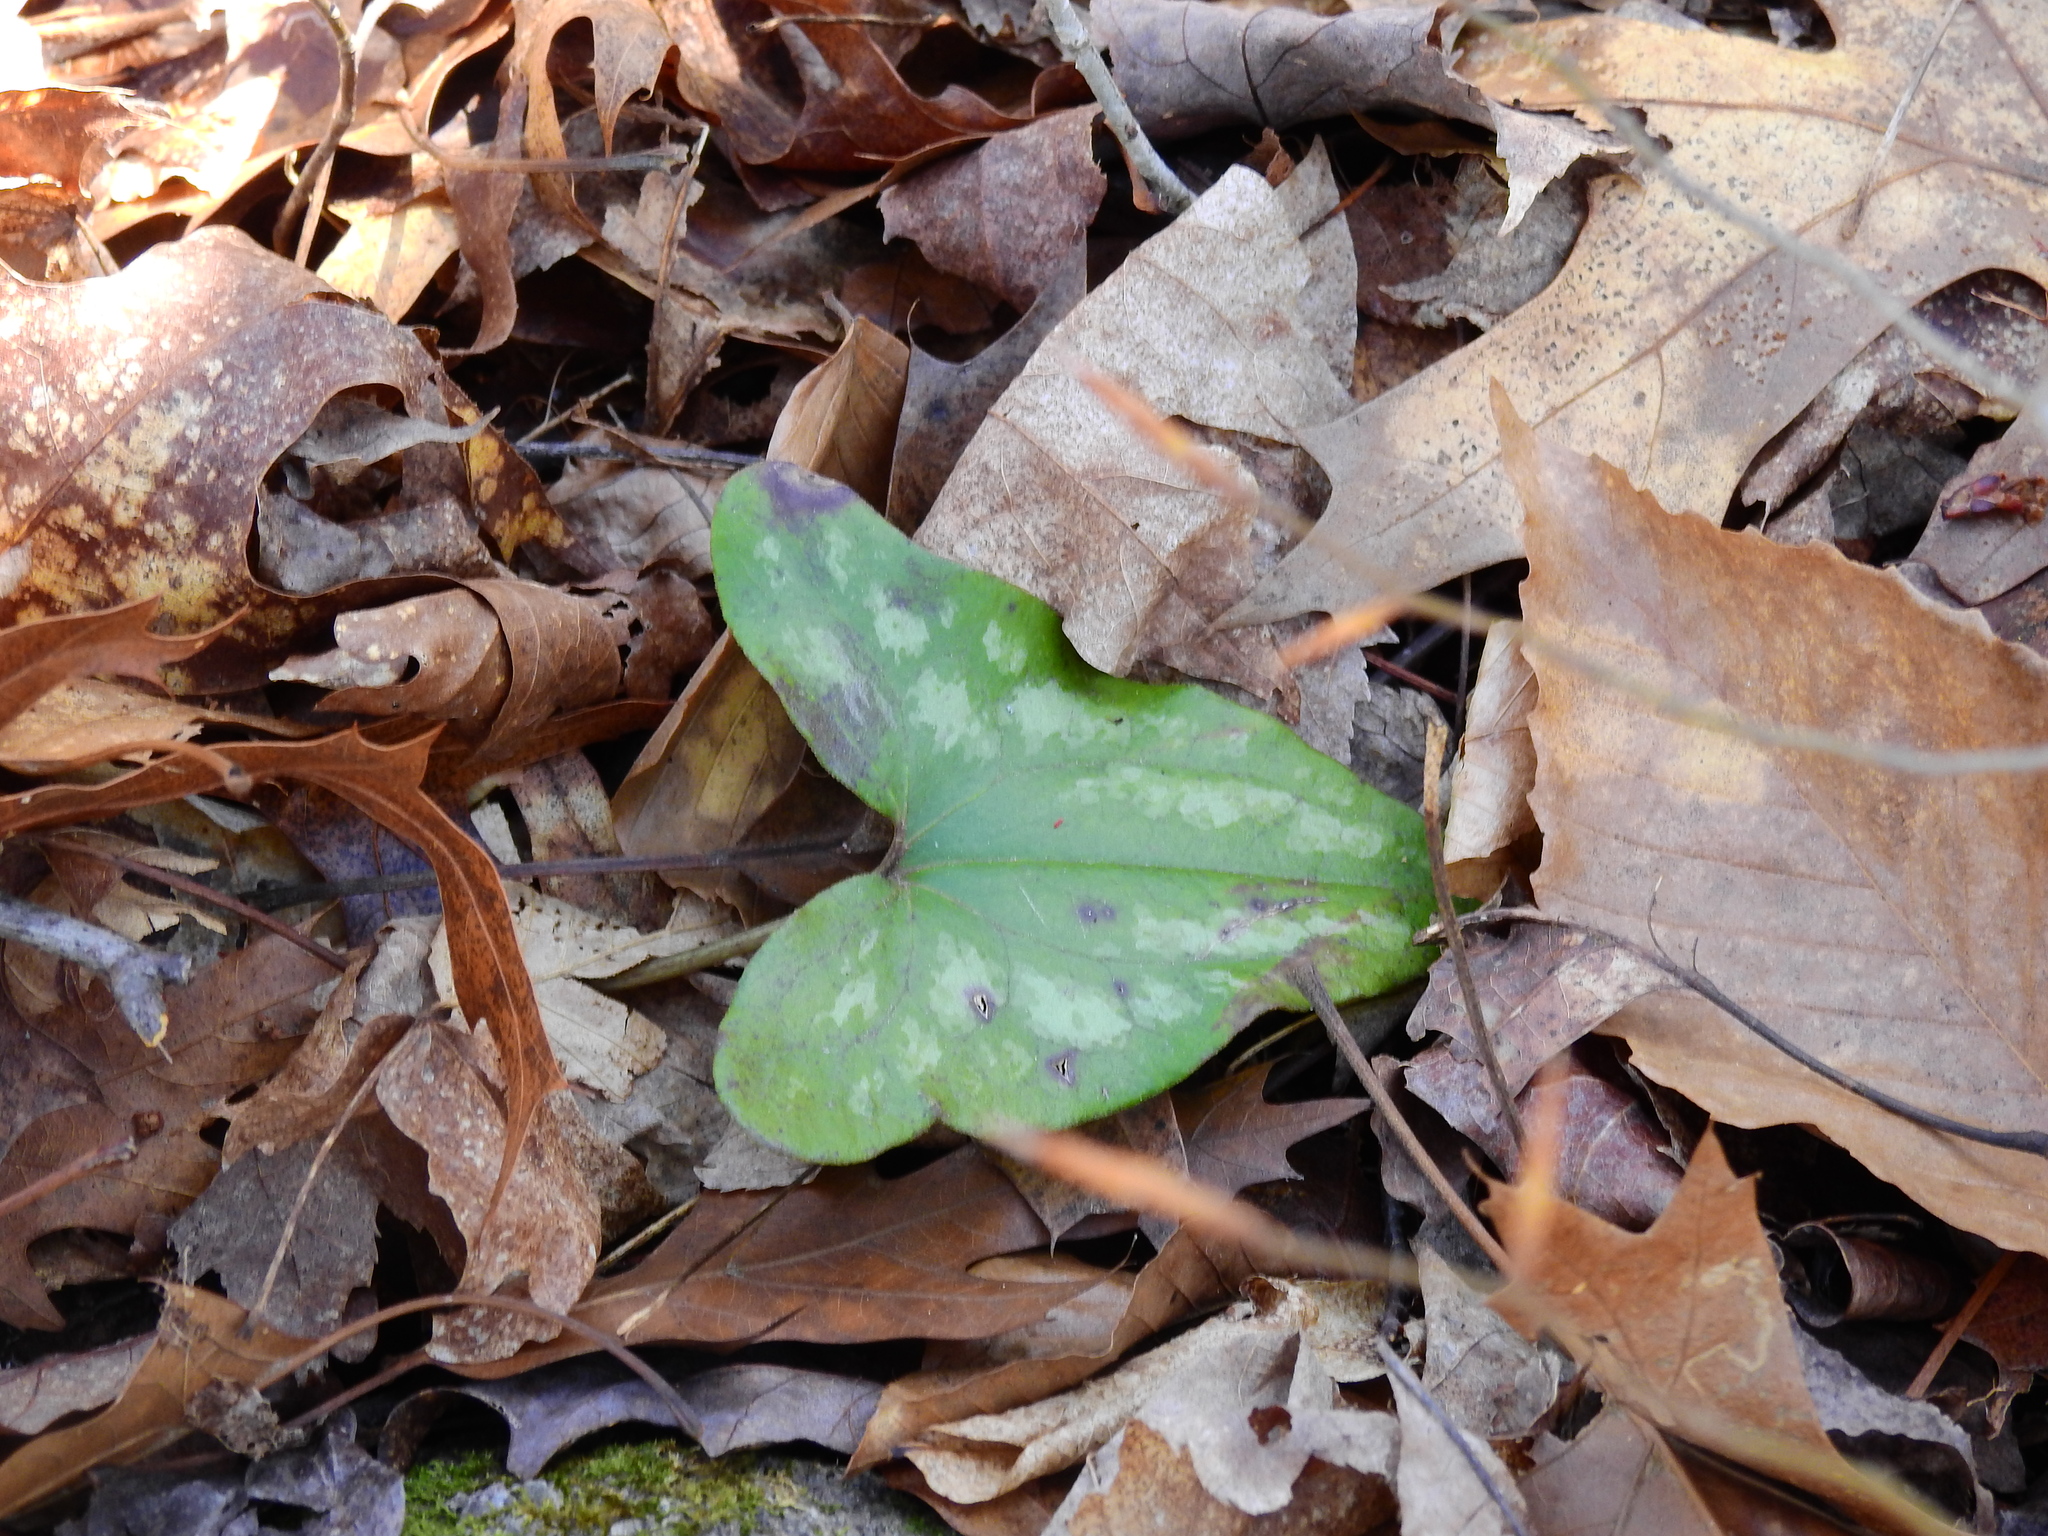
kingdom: Plantae
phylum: Tracheophyta
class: Magnoliopsida
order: Piperales
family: Aristolochiaceae
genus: Hexastylis
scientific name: Hexastylis arifolia
